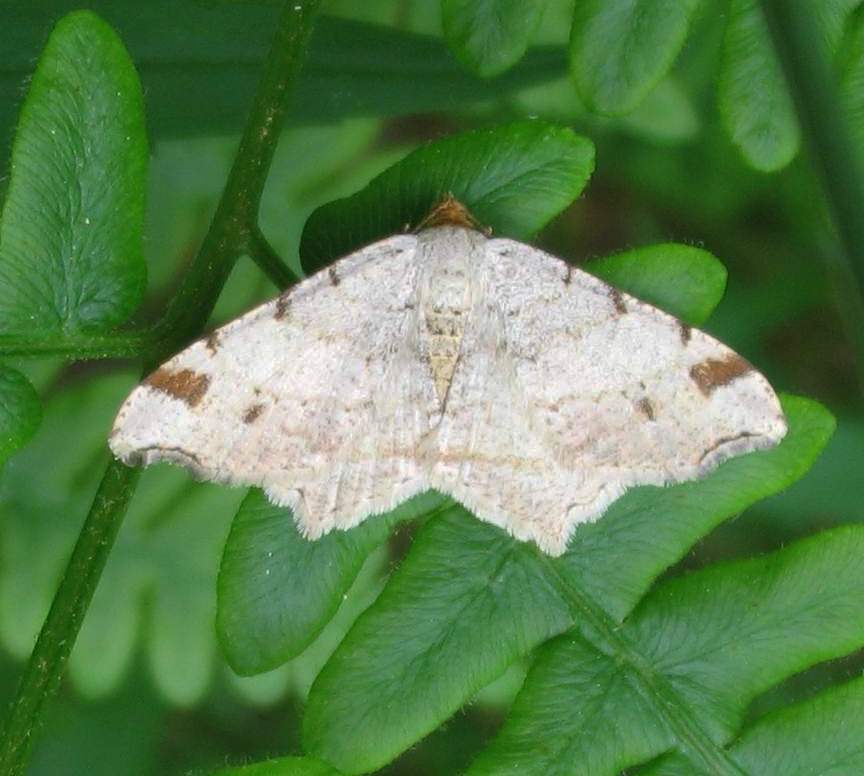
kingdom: Animalia
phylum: Arthropoda
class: Insecta
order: Lepidoptera
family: Geometridae
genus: Macaria
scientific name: Macaria bisignata
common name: Red-headed inchworm
